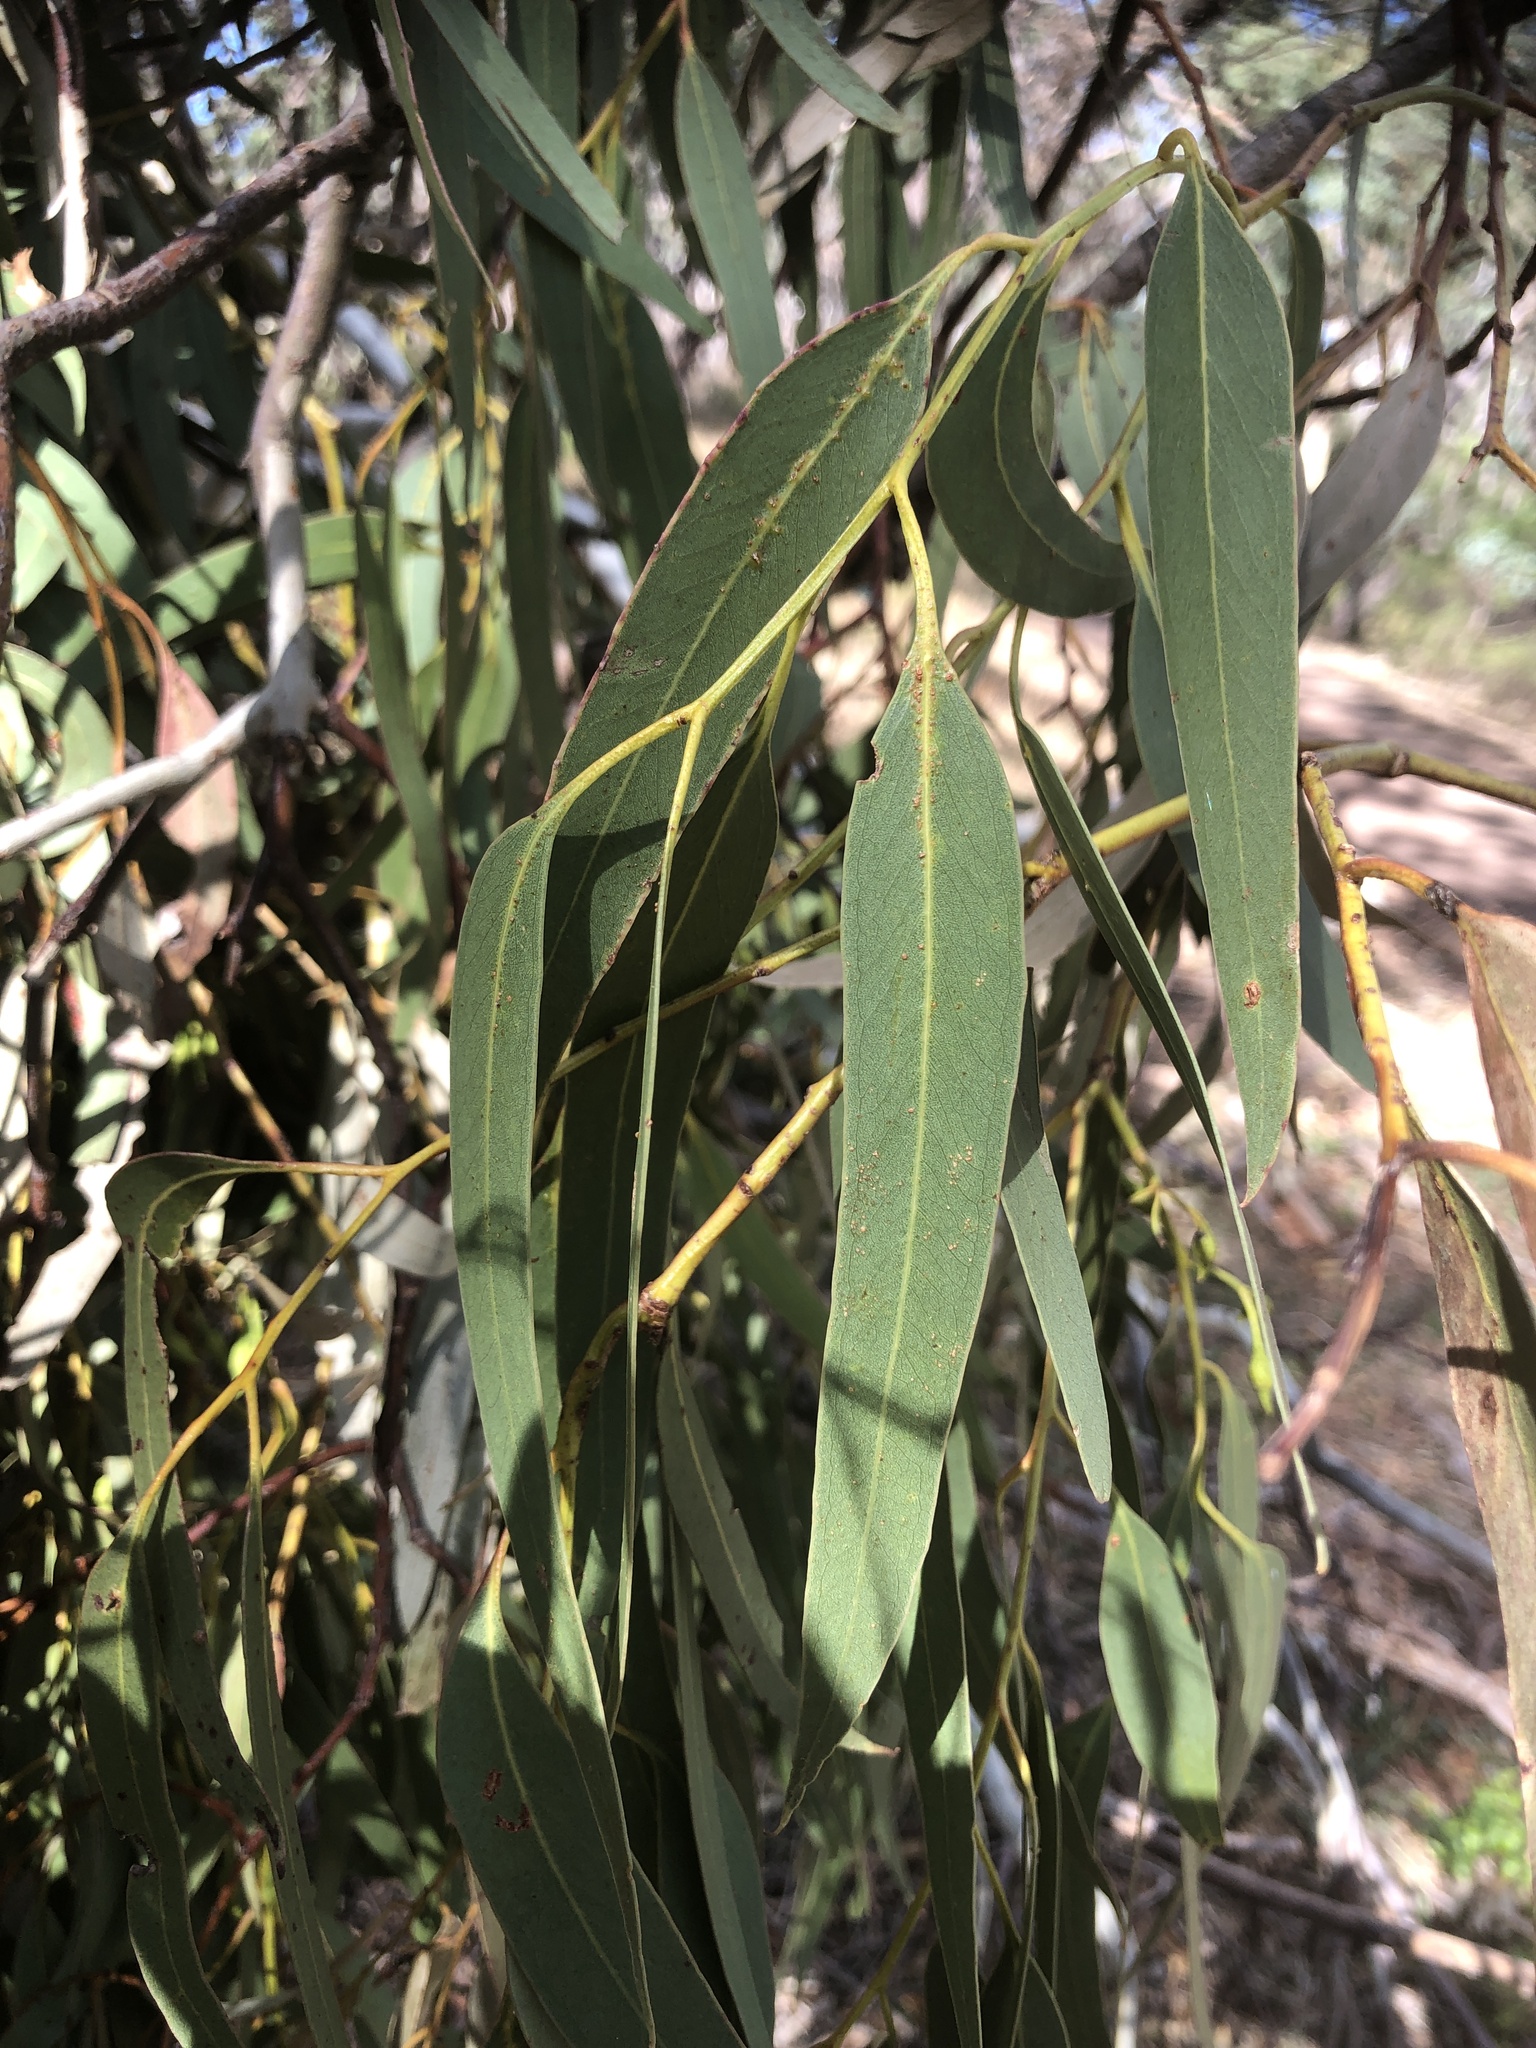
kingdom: Plantae
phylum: Tracheophyta
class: Magnoliopsida
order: Myrtales
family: Myrtaceae
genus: Eucalyptus
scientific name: Eucalyptus leucoxylon
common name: Blue gum
